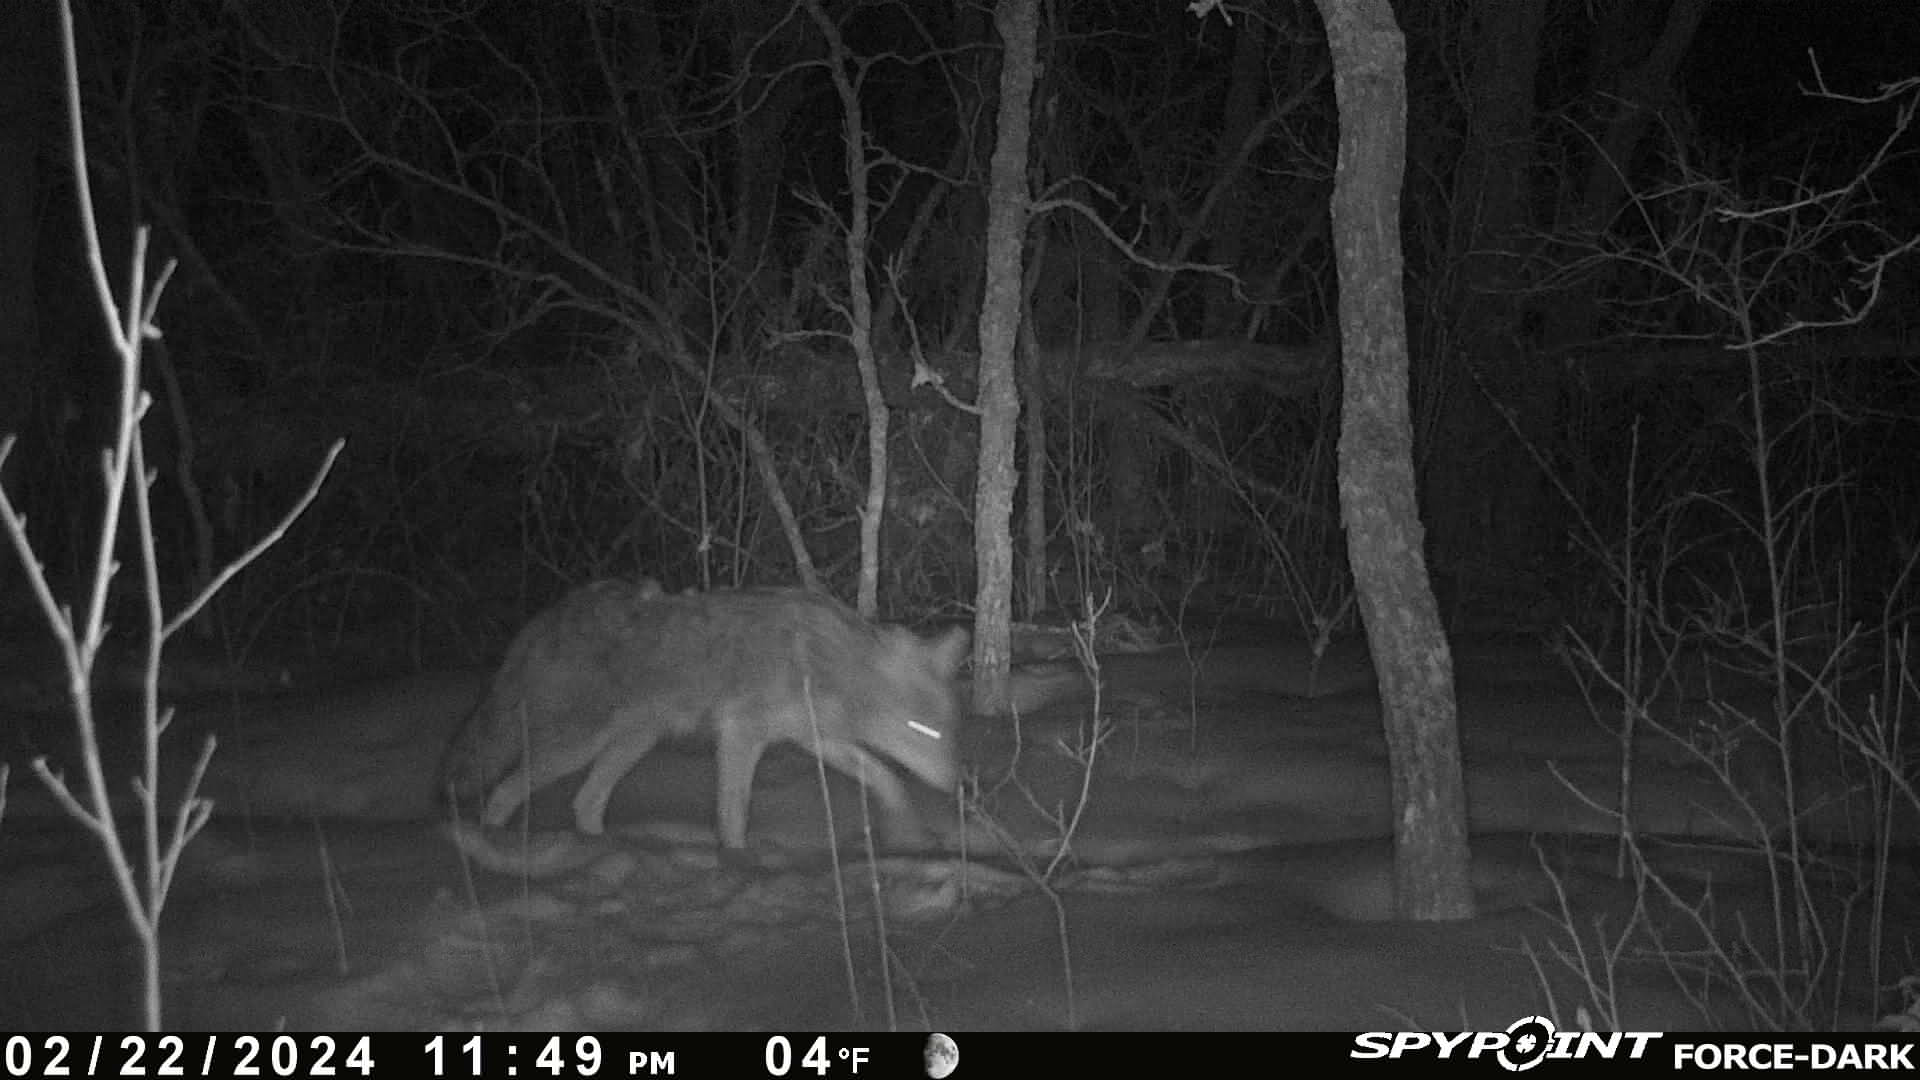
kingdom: Animalia
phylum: Chordata
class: Mammalia
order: Carnivora
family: Canidae
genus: Canis
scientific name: Canis latrans
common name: Coyote
